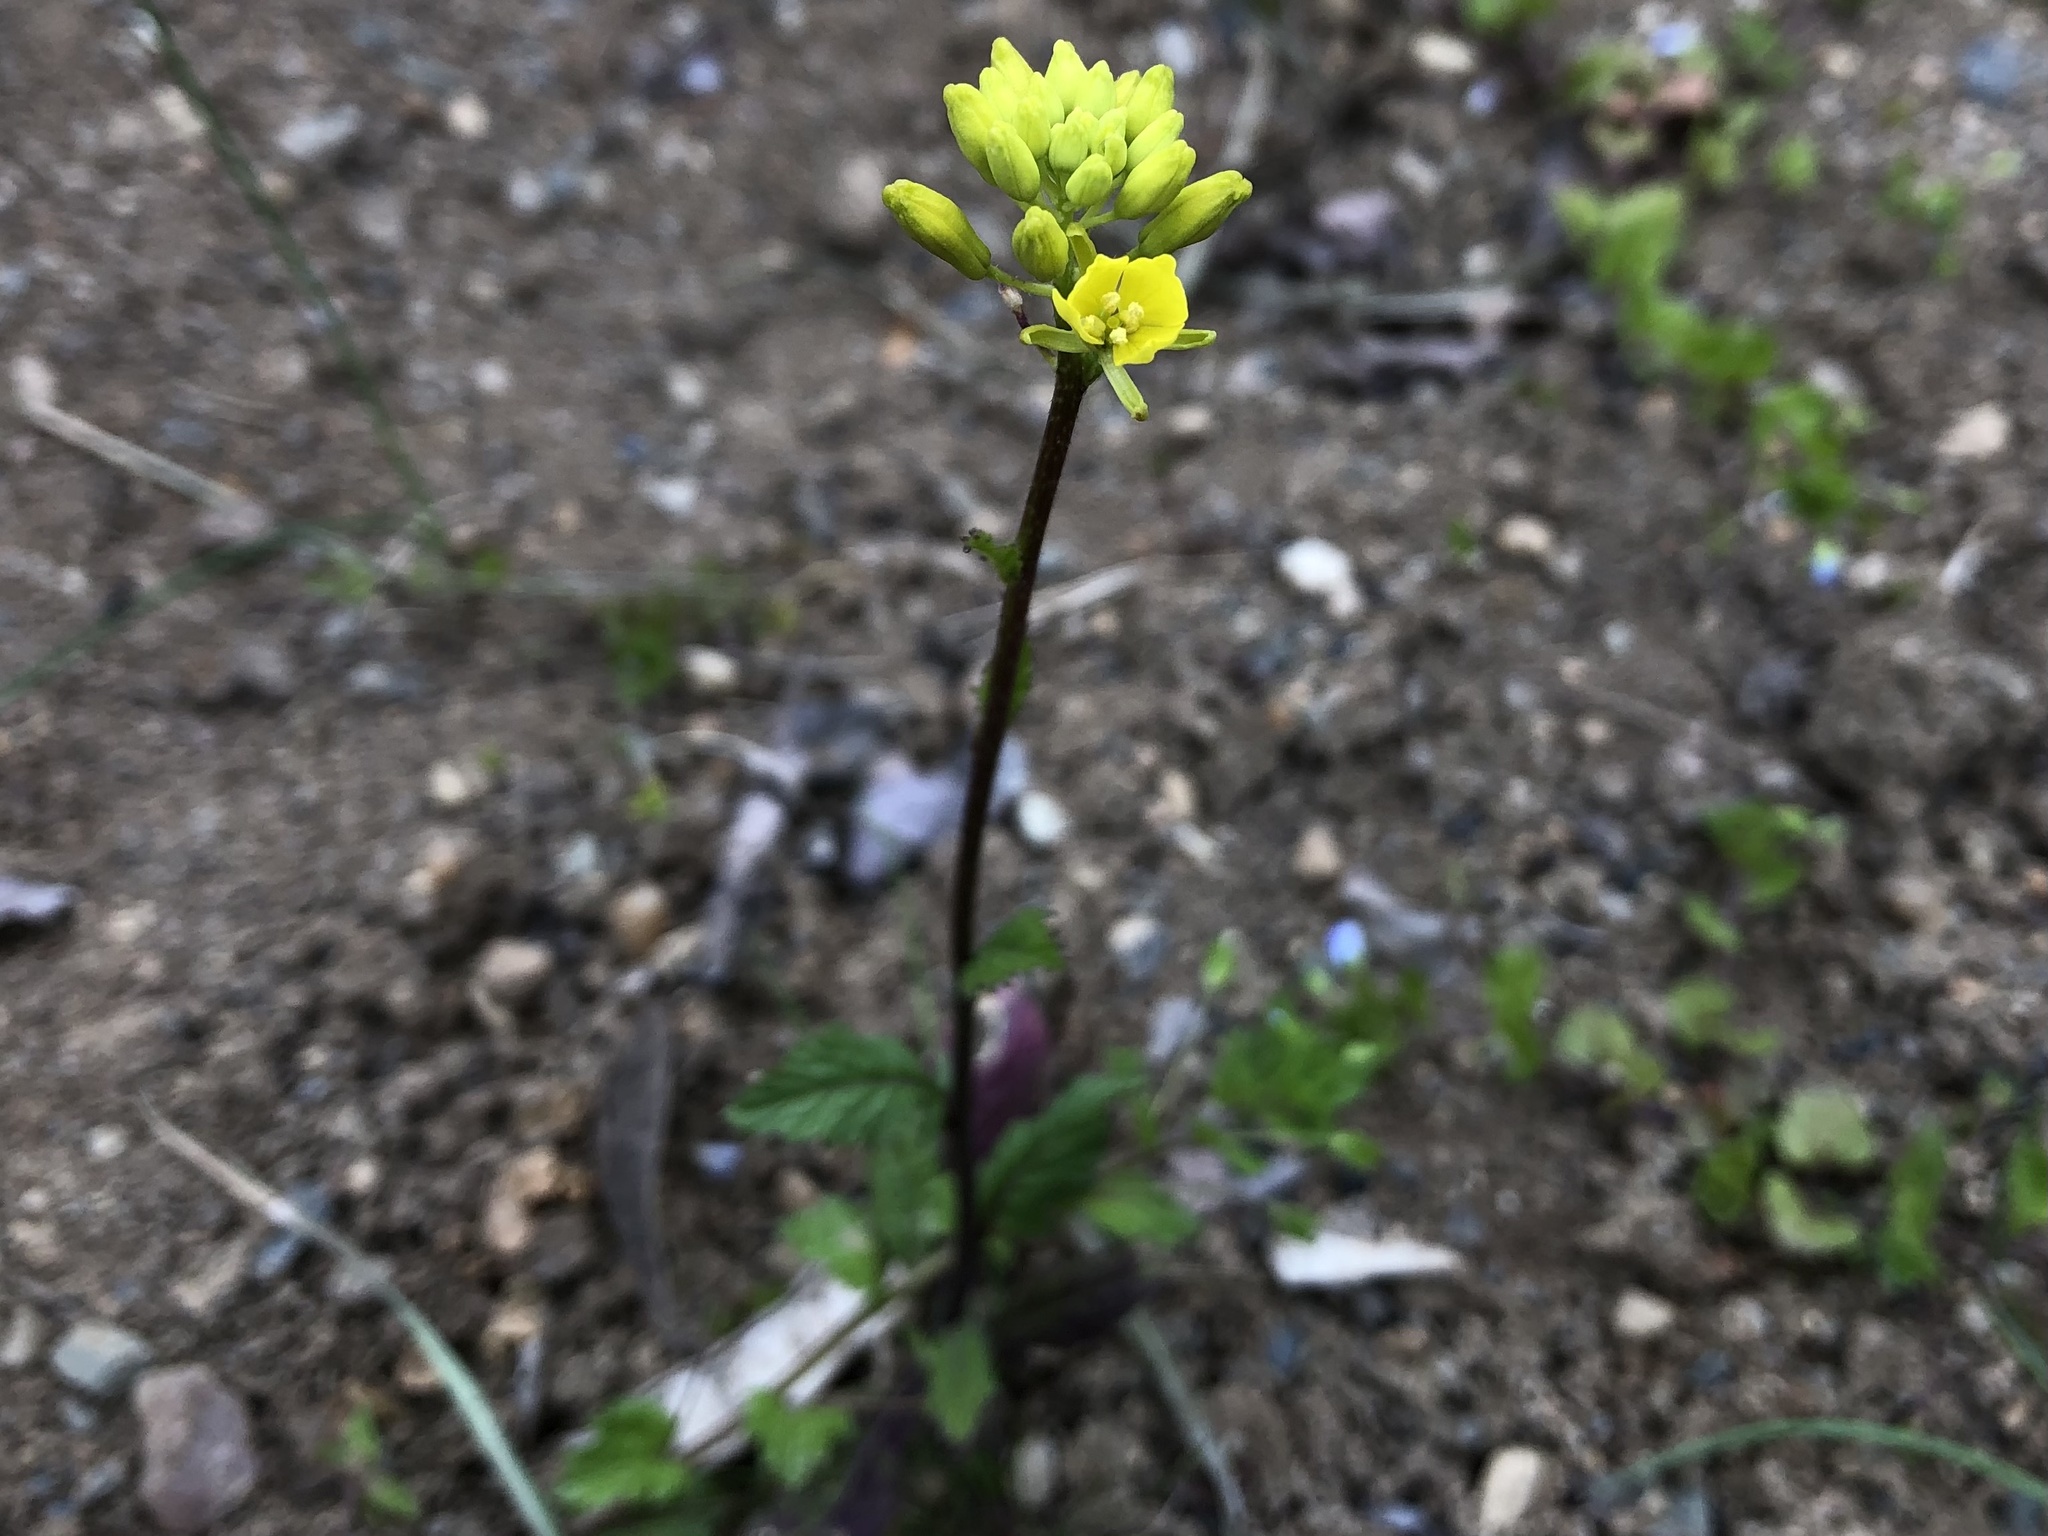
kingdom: Plantae
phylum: Tracheophyta
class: Magnoliopsida
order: Brassicales
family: Brassicaceae
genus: Sinapis
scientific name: Sinapis arvensis
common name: Charlock
